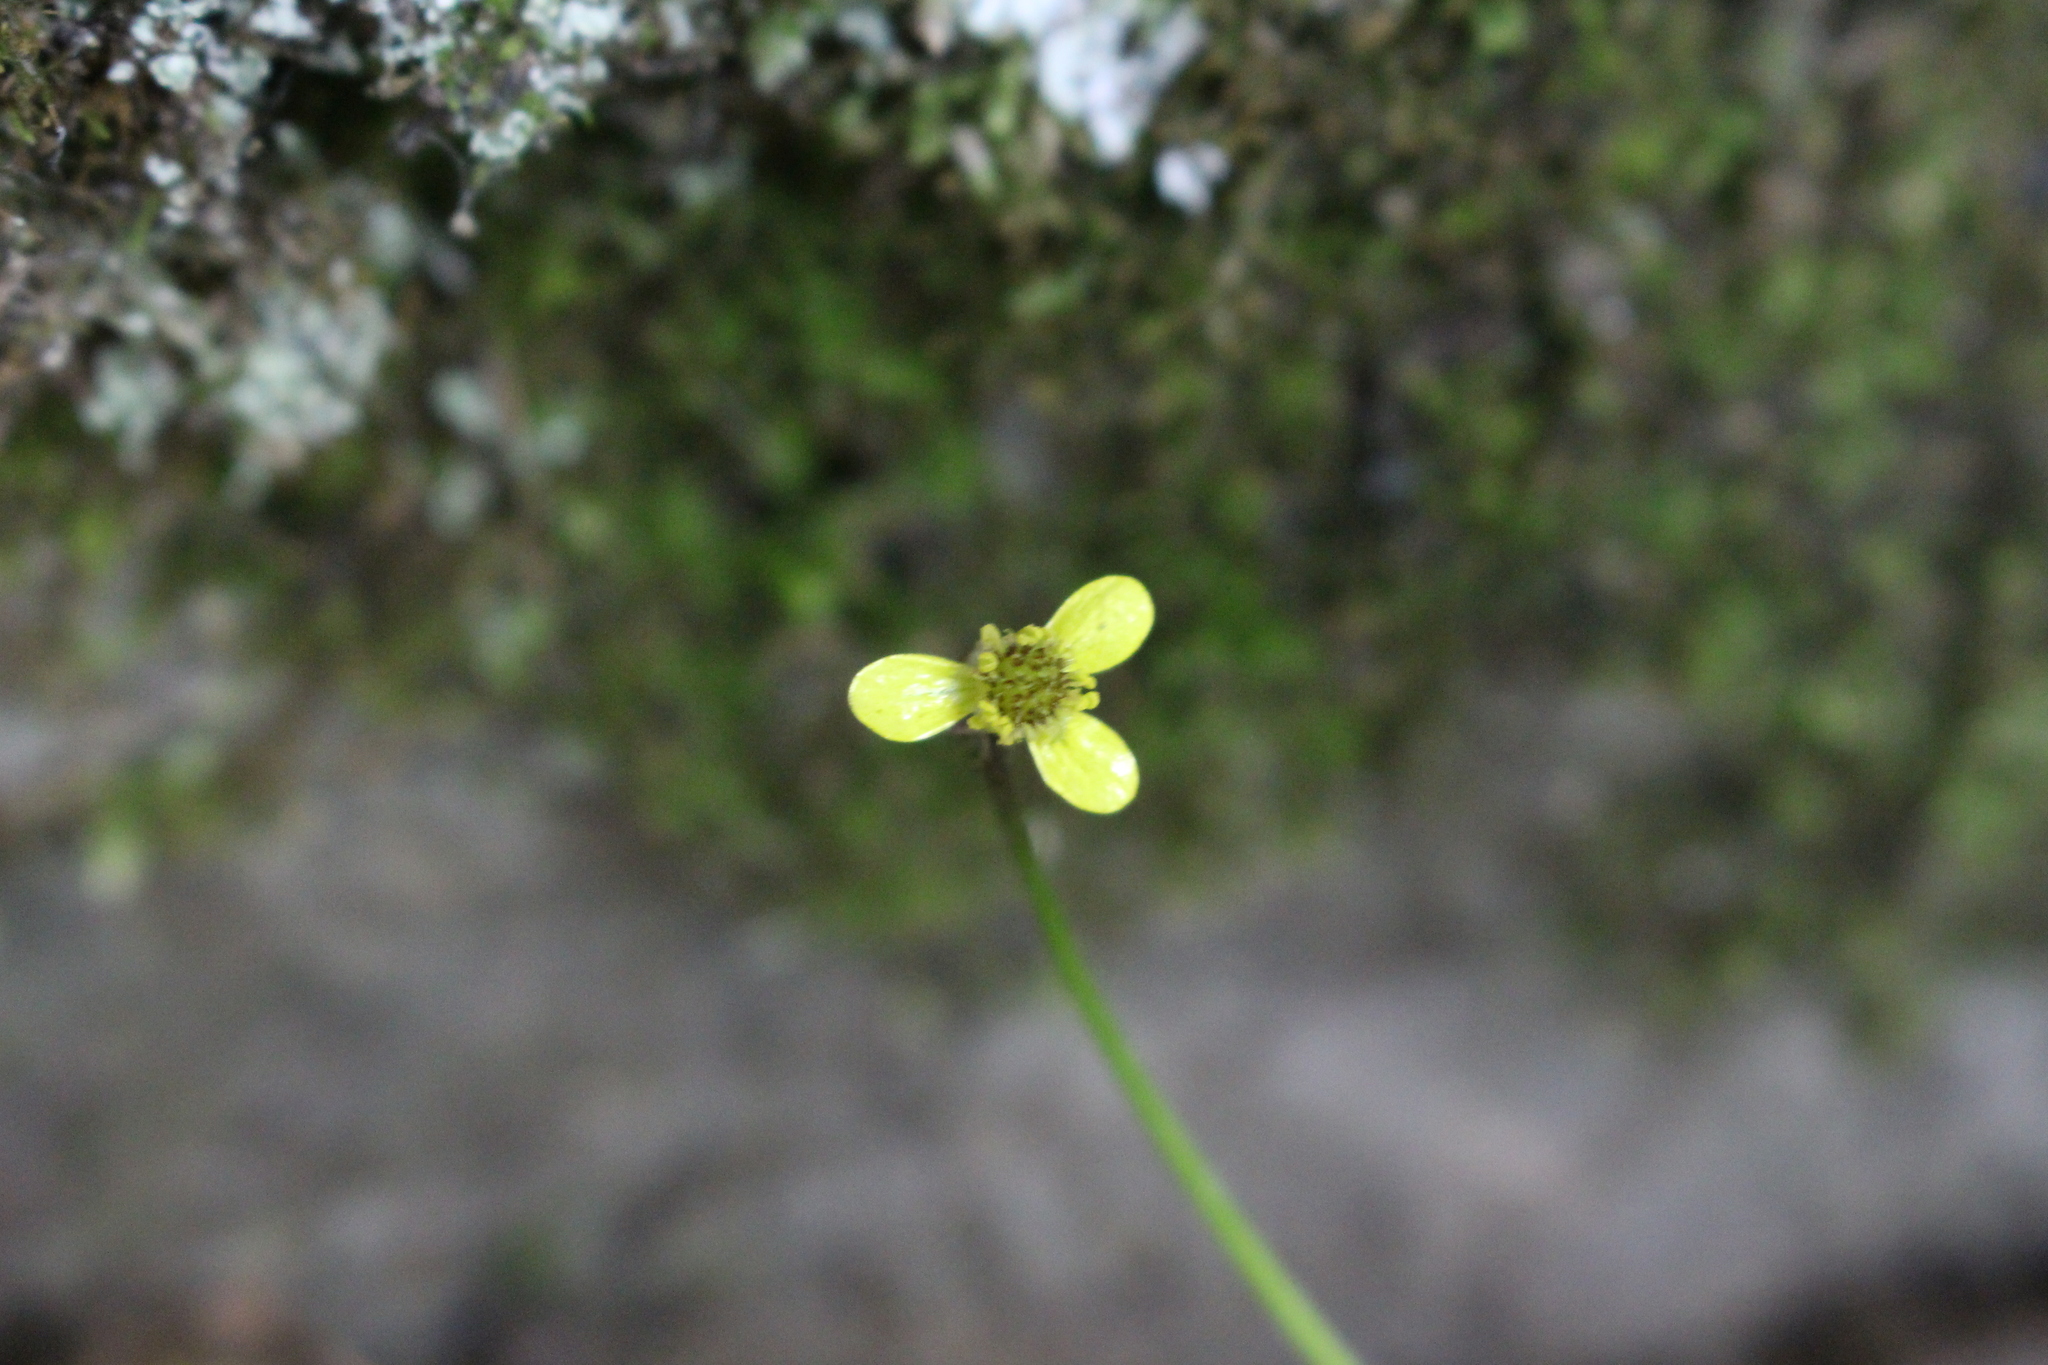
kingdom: Plantae
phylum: Tracheophyta
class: Magnoliopsida
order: Ranunculales
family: Ranunculaceae
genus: Ranunculus
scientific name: Ranunculus reflexus
